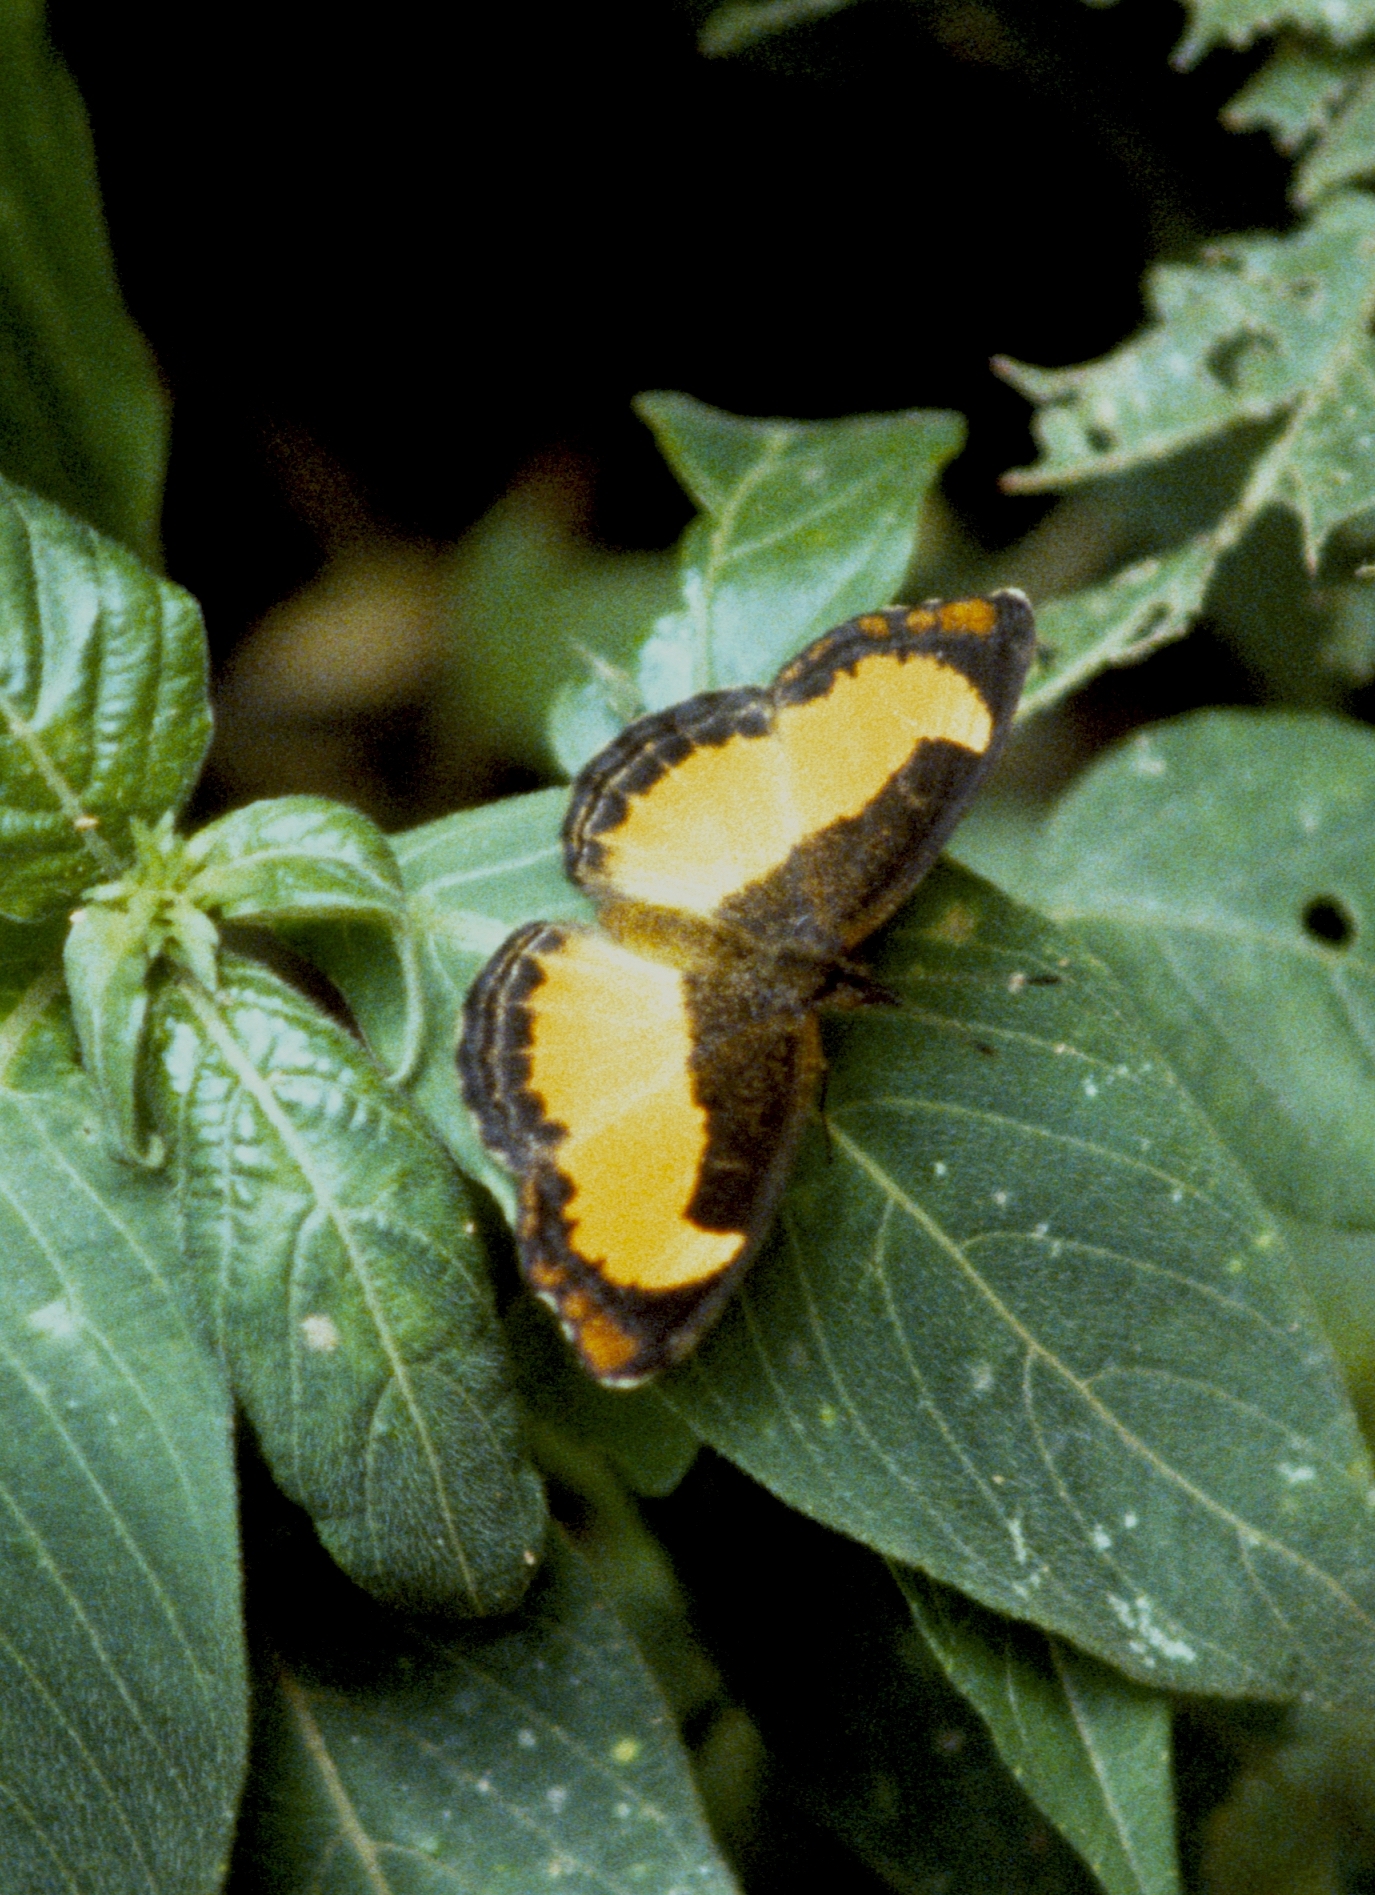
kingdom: Animalia
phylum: Arthropoda
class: Insecta
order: Lepidoptera
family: Nymphalidae
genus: Vanessula
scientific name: Vanessula milea
